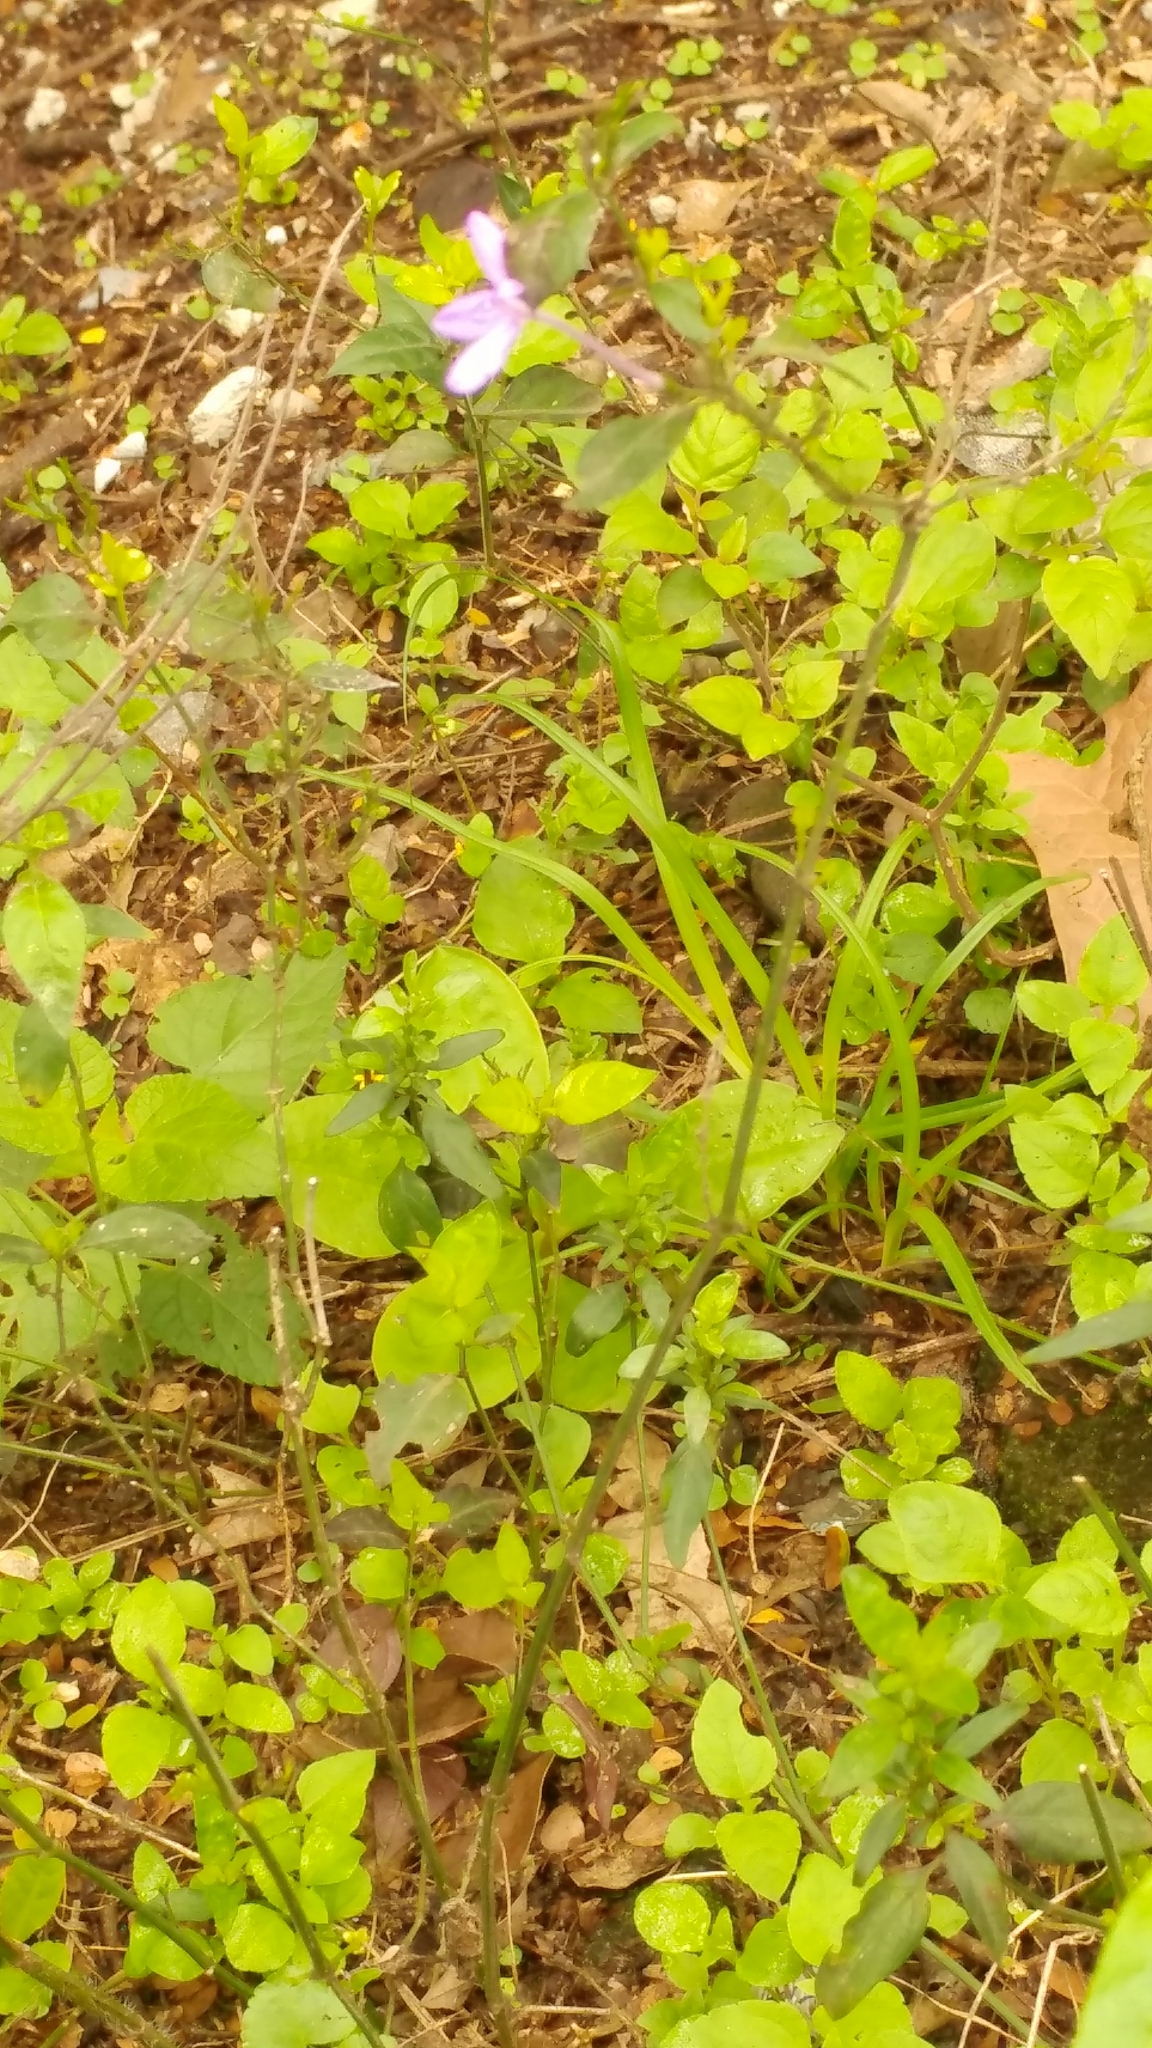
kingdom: Plantae
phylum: Tracheophyta
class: Magnoliopsida
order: Lamiales
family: Acanthaceae
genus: Justicia
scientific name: Justicia hintoniorum
